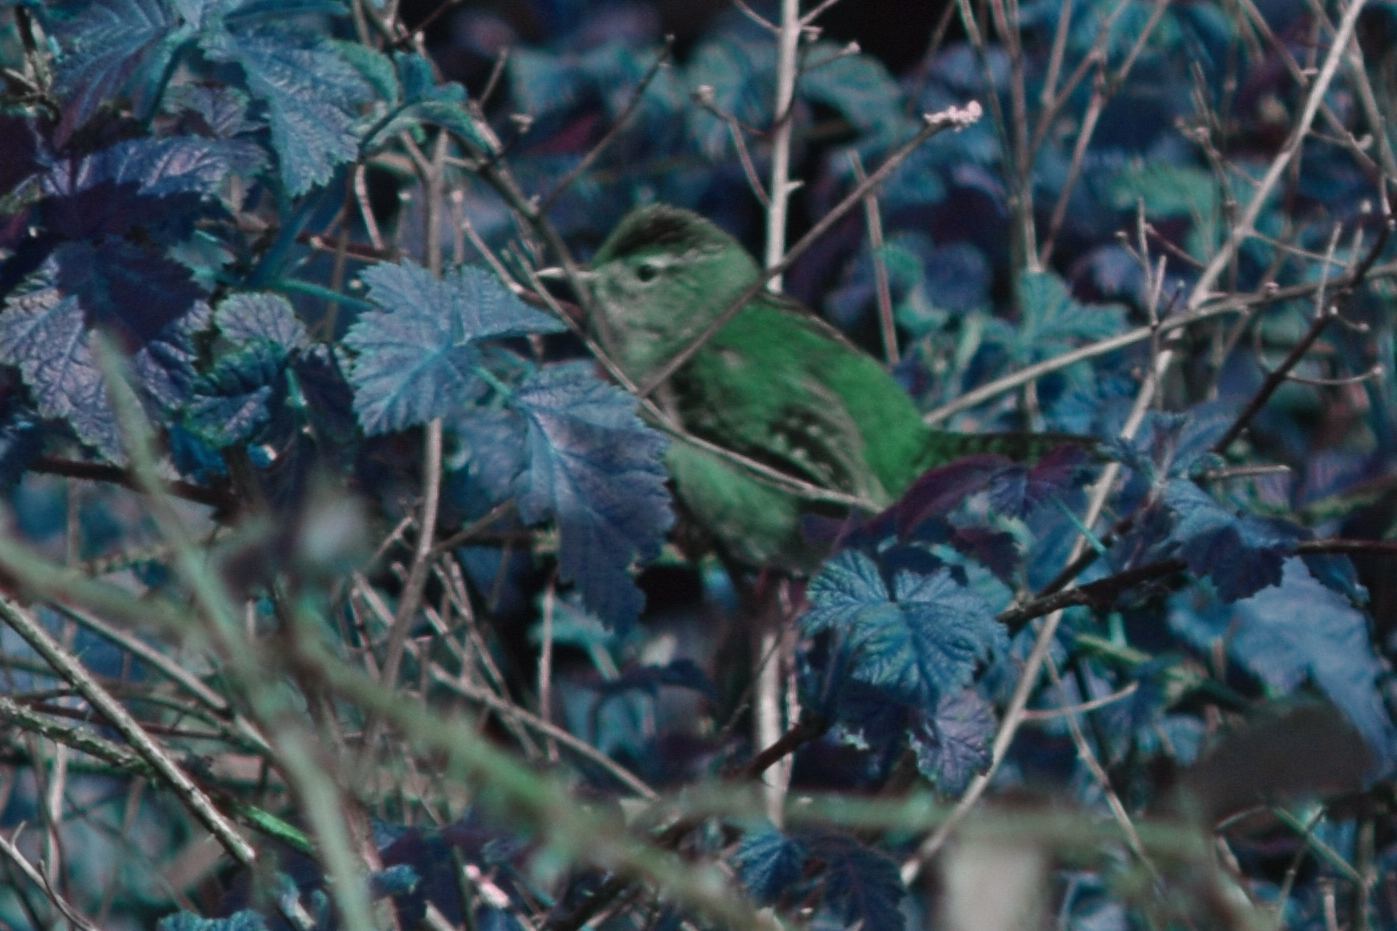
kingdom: Animalia
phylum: Chordata
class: Aves
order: Passeriformes
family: Troglodytidae
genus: Cistothorus
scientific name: Cistothorus palustris
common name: Marsh wren
